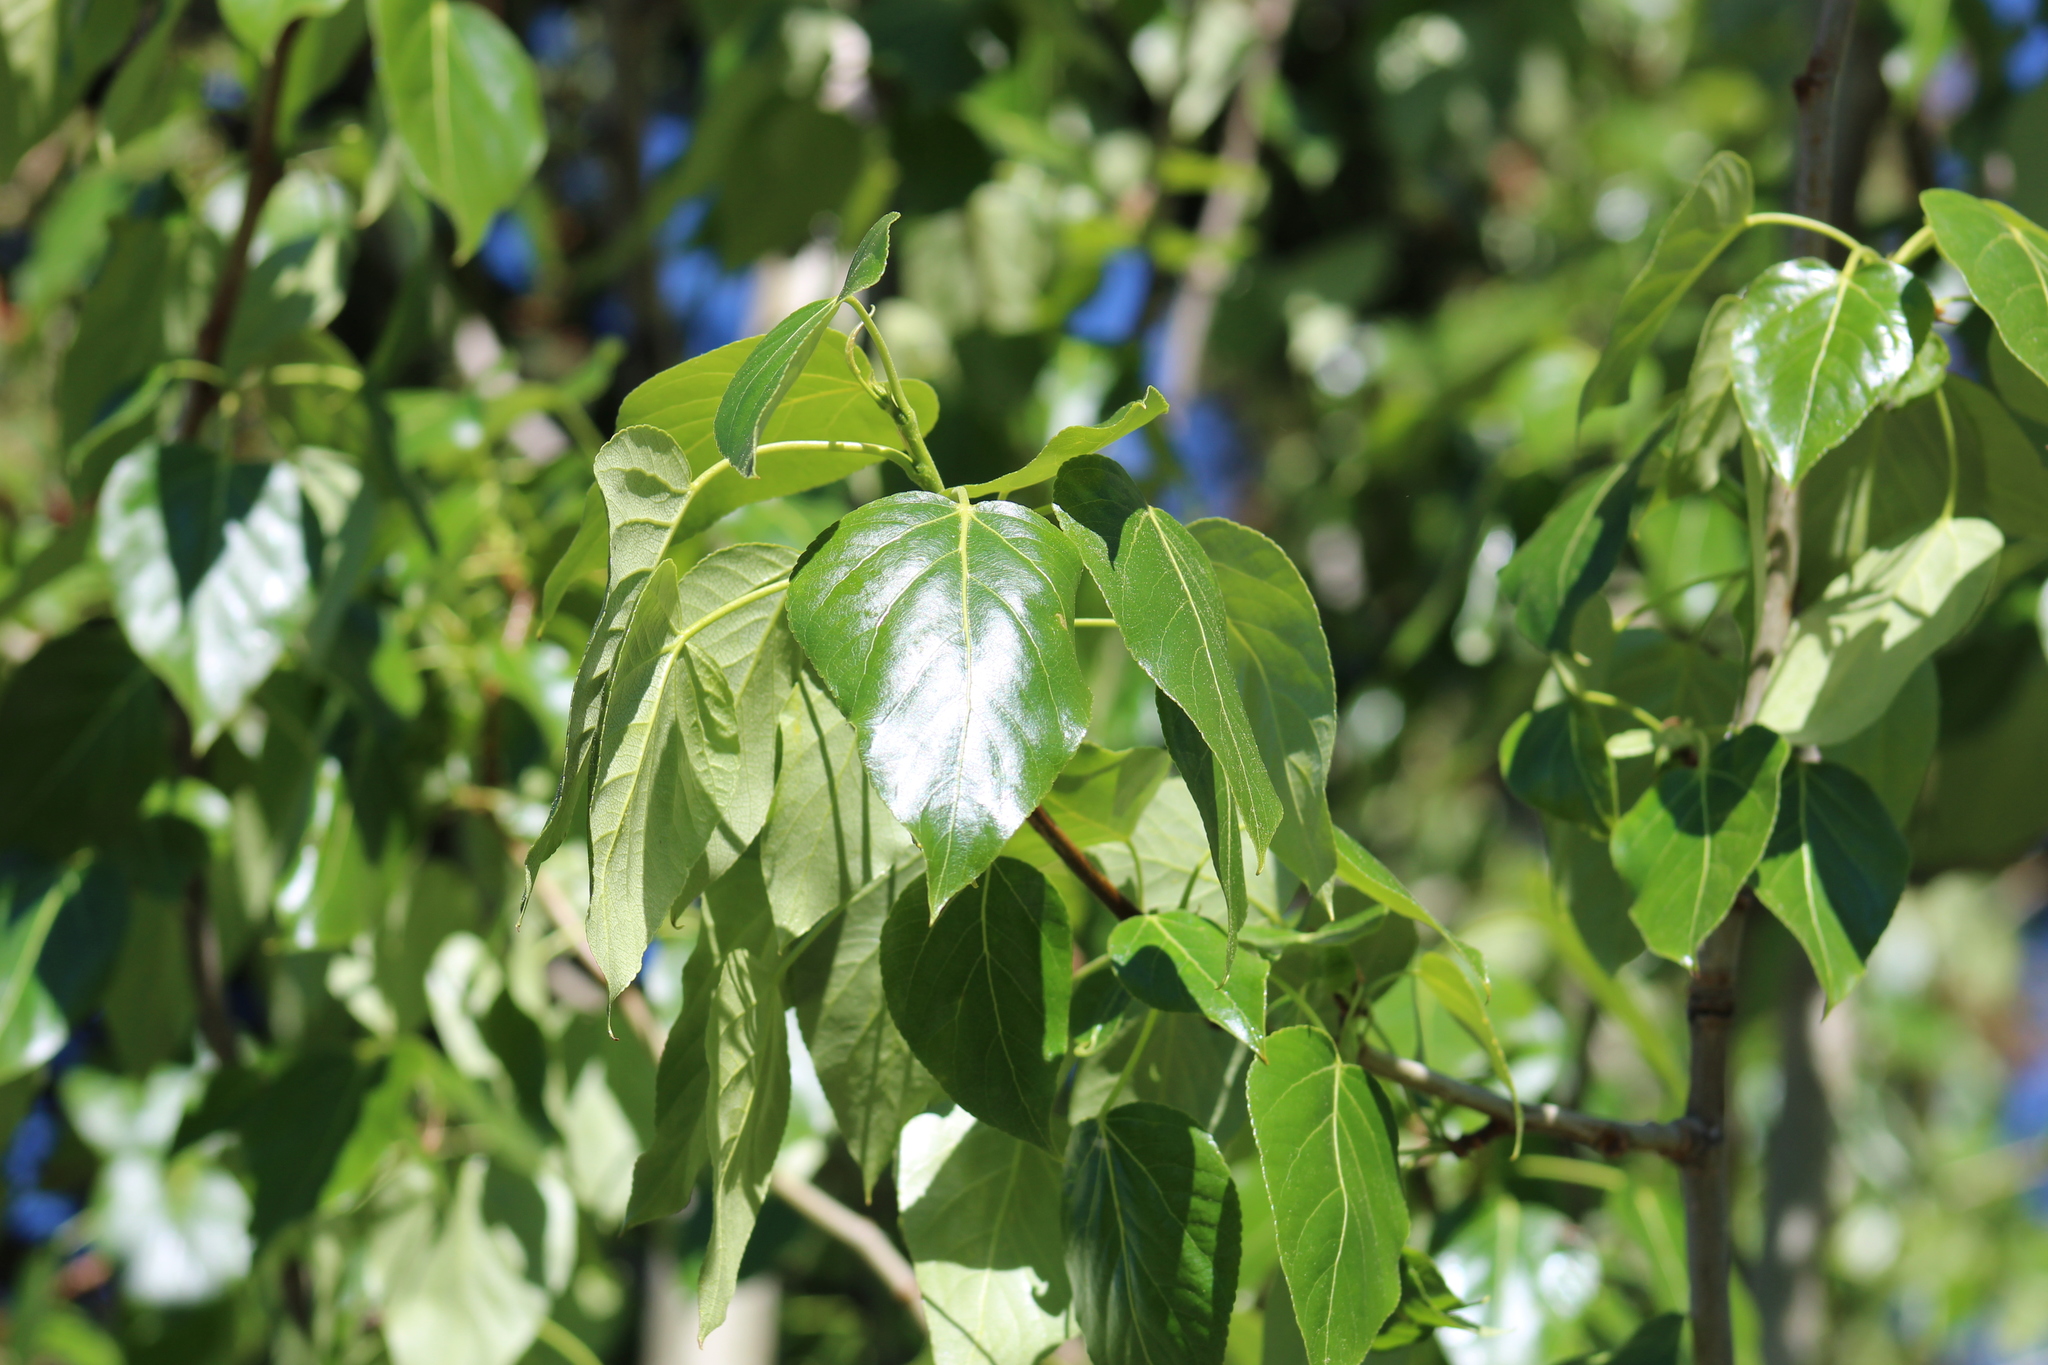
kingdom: Plantae
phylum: Tracheophyta
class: Magnoliopsida
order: Malpighiales
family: Salicaceae
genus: Populus
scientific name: Populus balsamifera
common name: Balsam poplar
